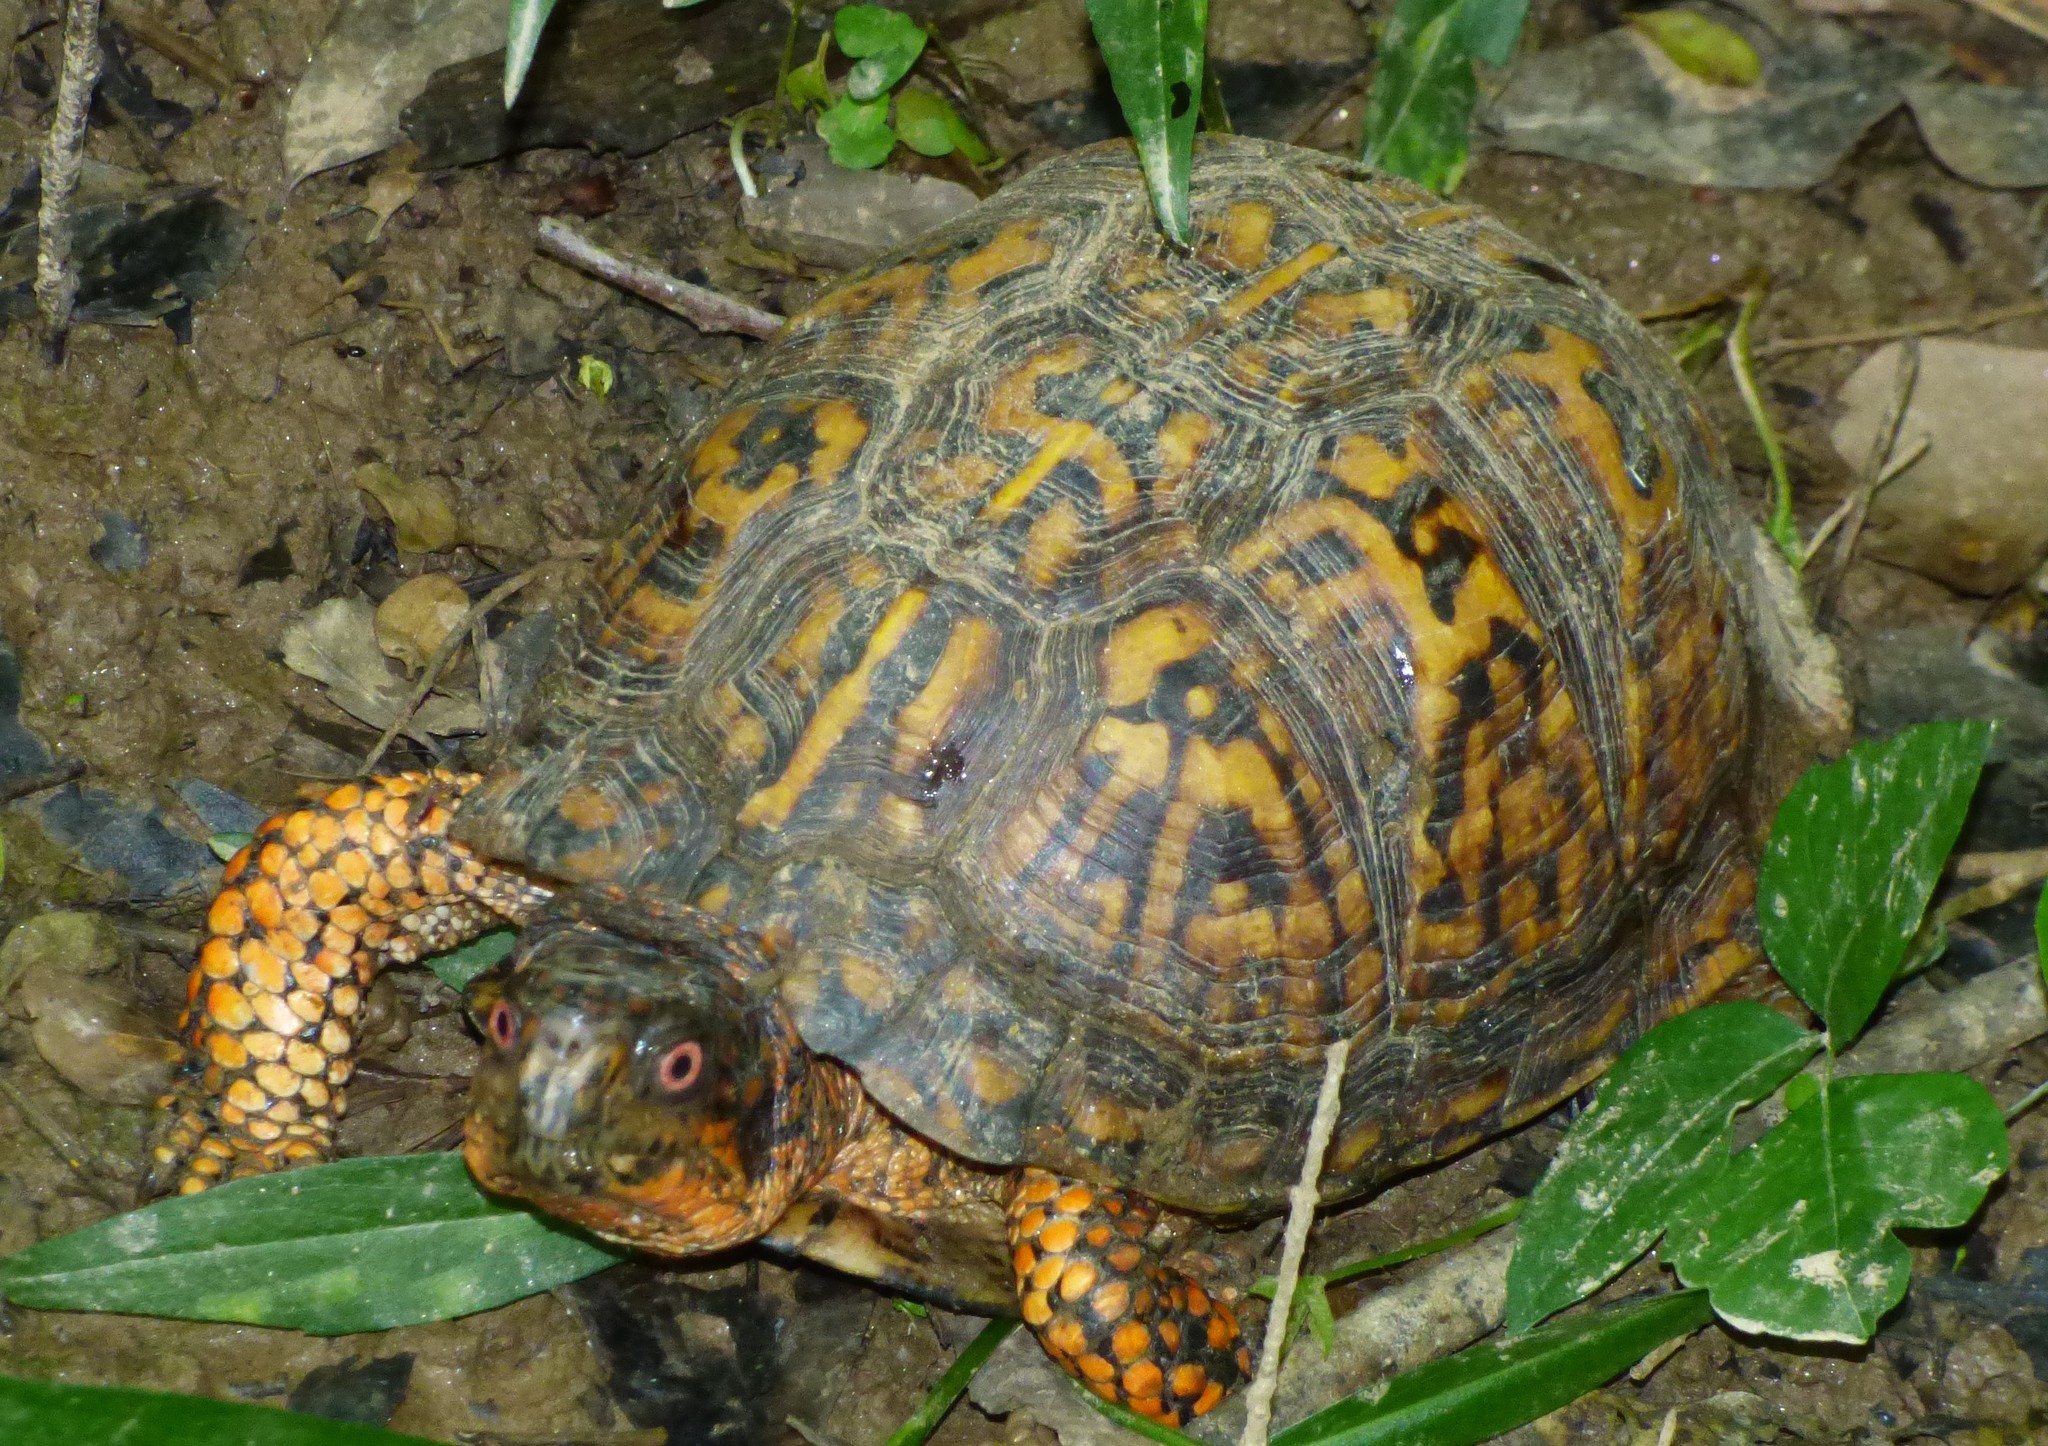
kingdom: Animalia
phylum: Chordata
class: Testudines
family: Emydidae
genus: Terrapene
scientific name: Terrapene carolina
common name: Common box turtle
